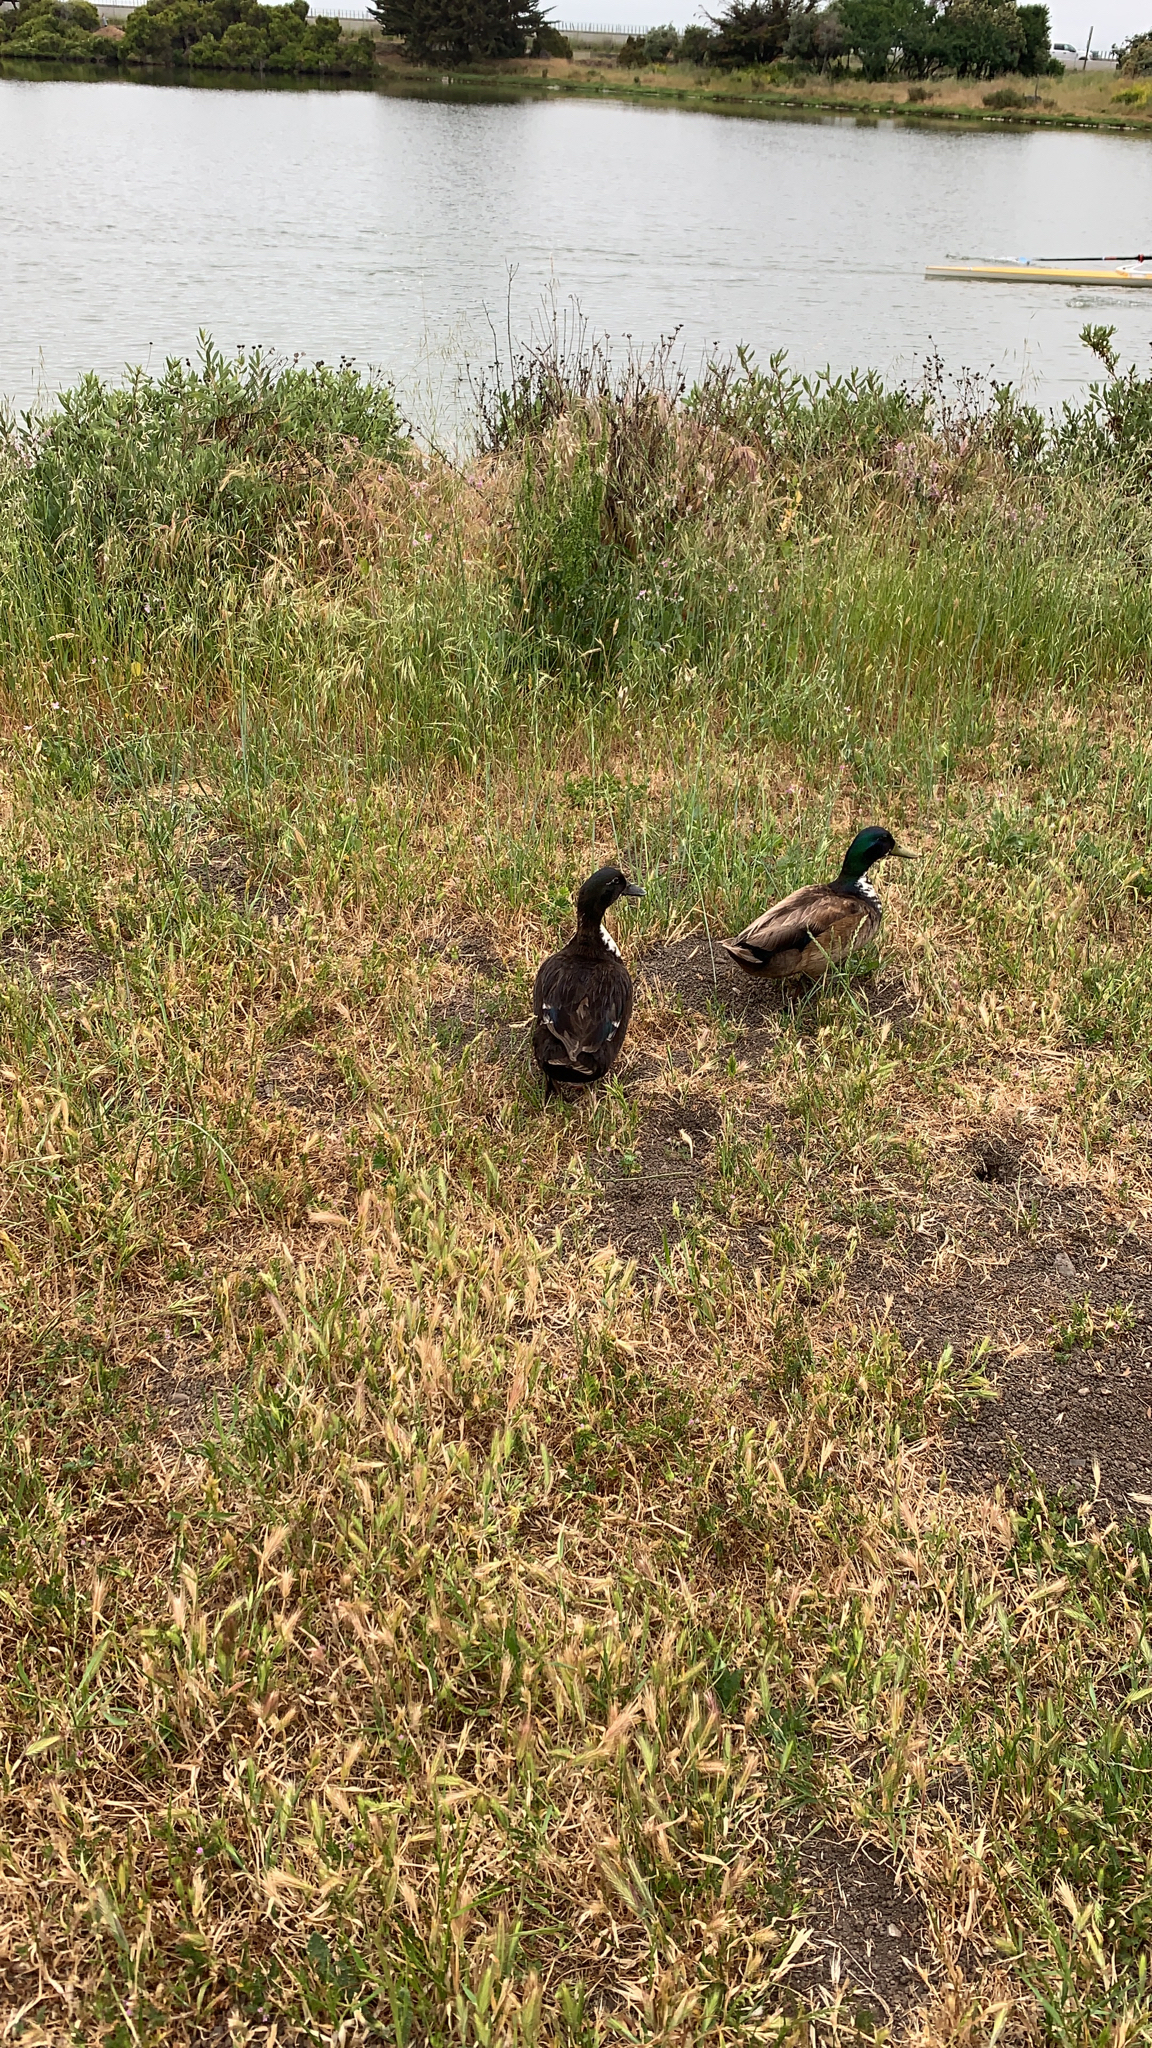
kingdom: Animalia
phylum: Chordata
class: Aves
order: Anseriformes
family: Anatidae
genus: Anas
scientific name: Anas platyrhynchos
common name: Mallard
